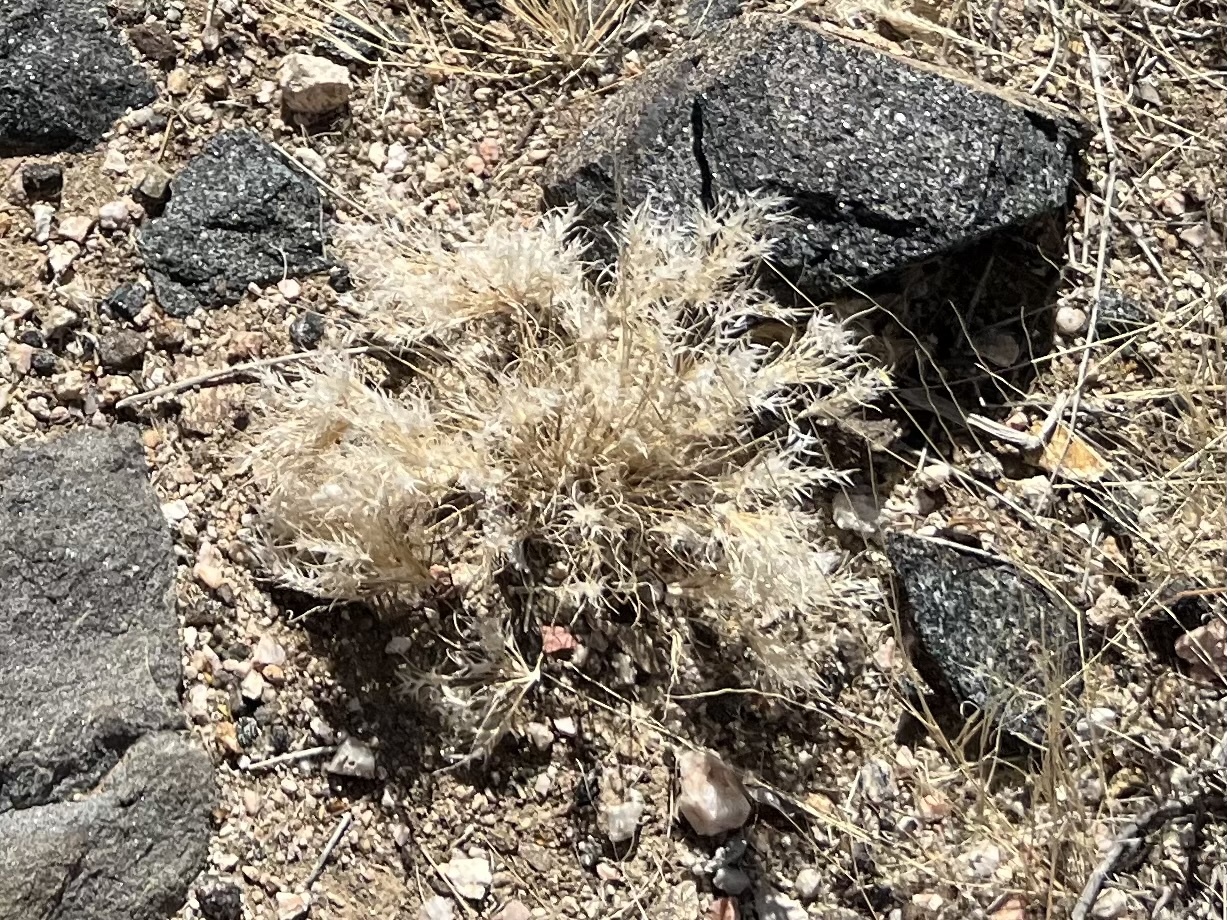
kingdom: Plantae
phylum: Tracheophyta
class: Liliopsida
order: Poales
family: Poaceae
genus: Dasyochloa
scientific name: Dasyochloa pulchella
